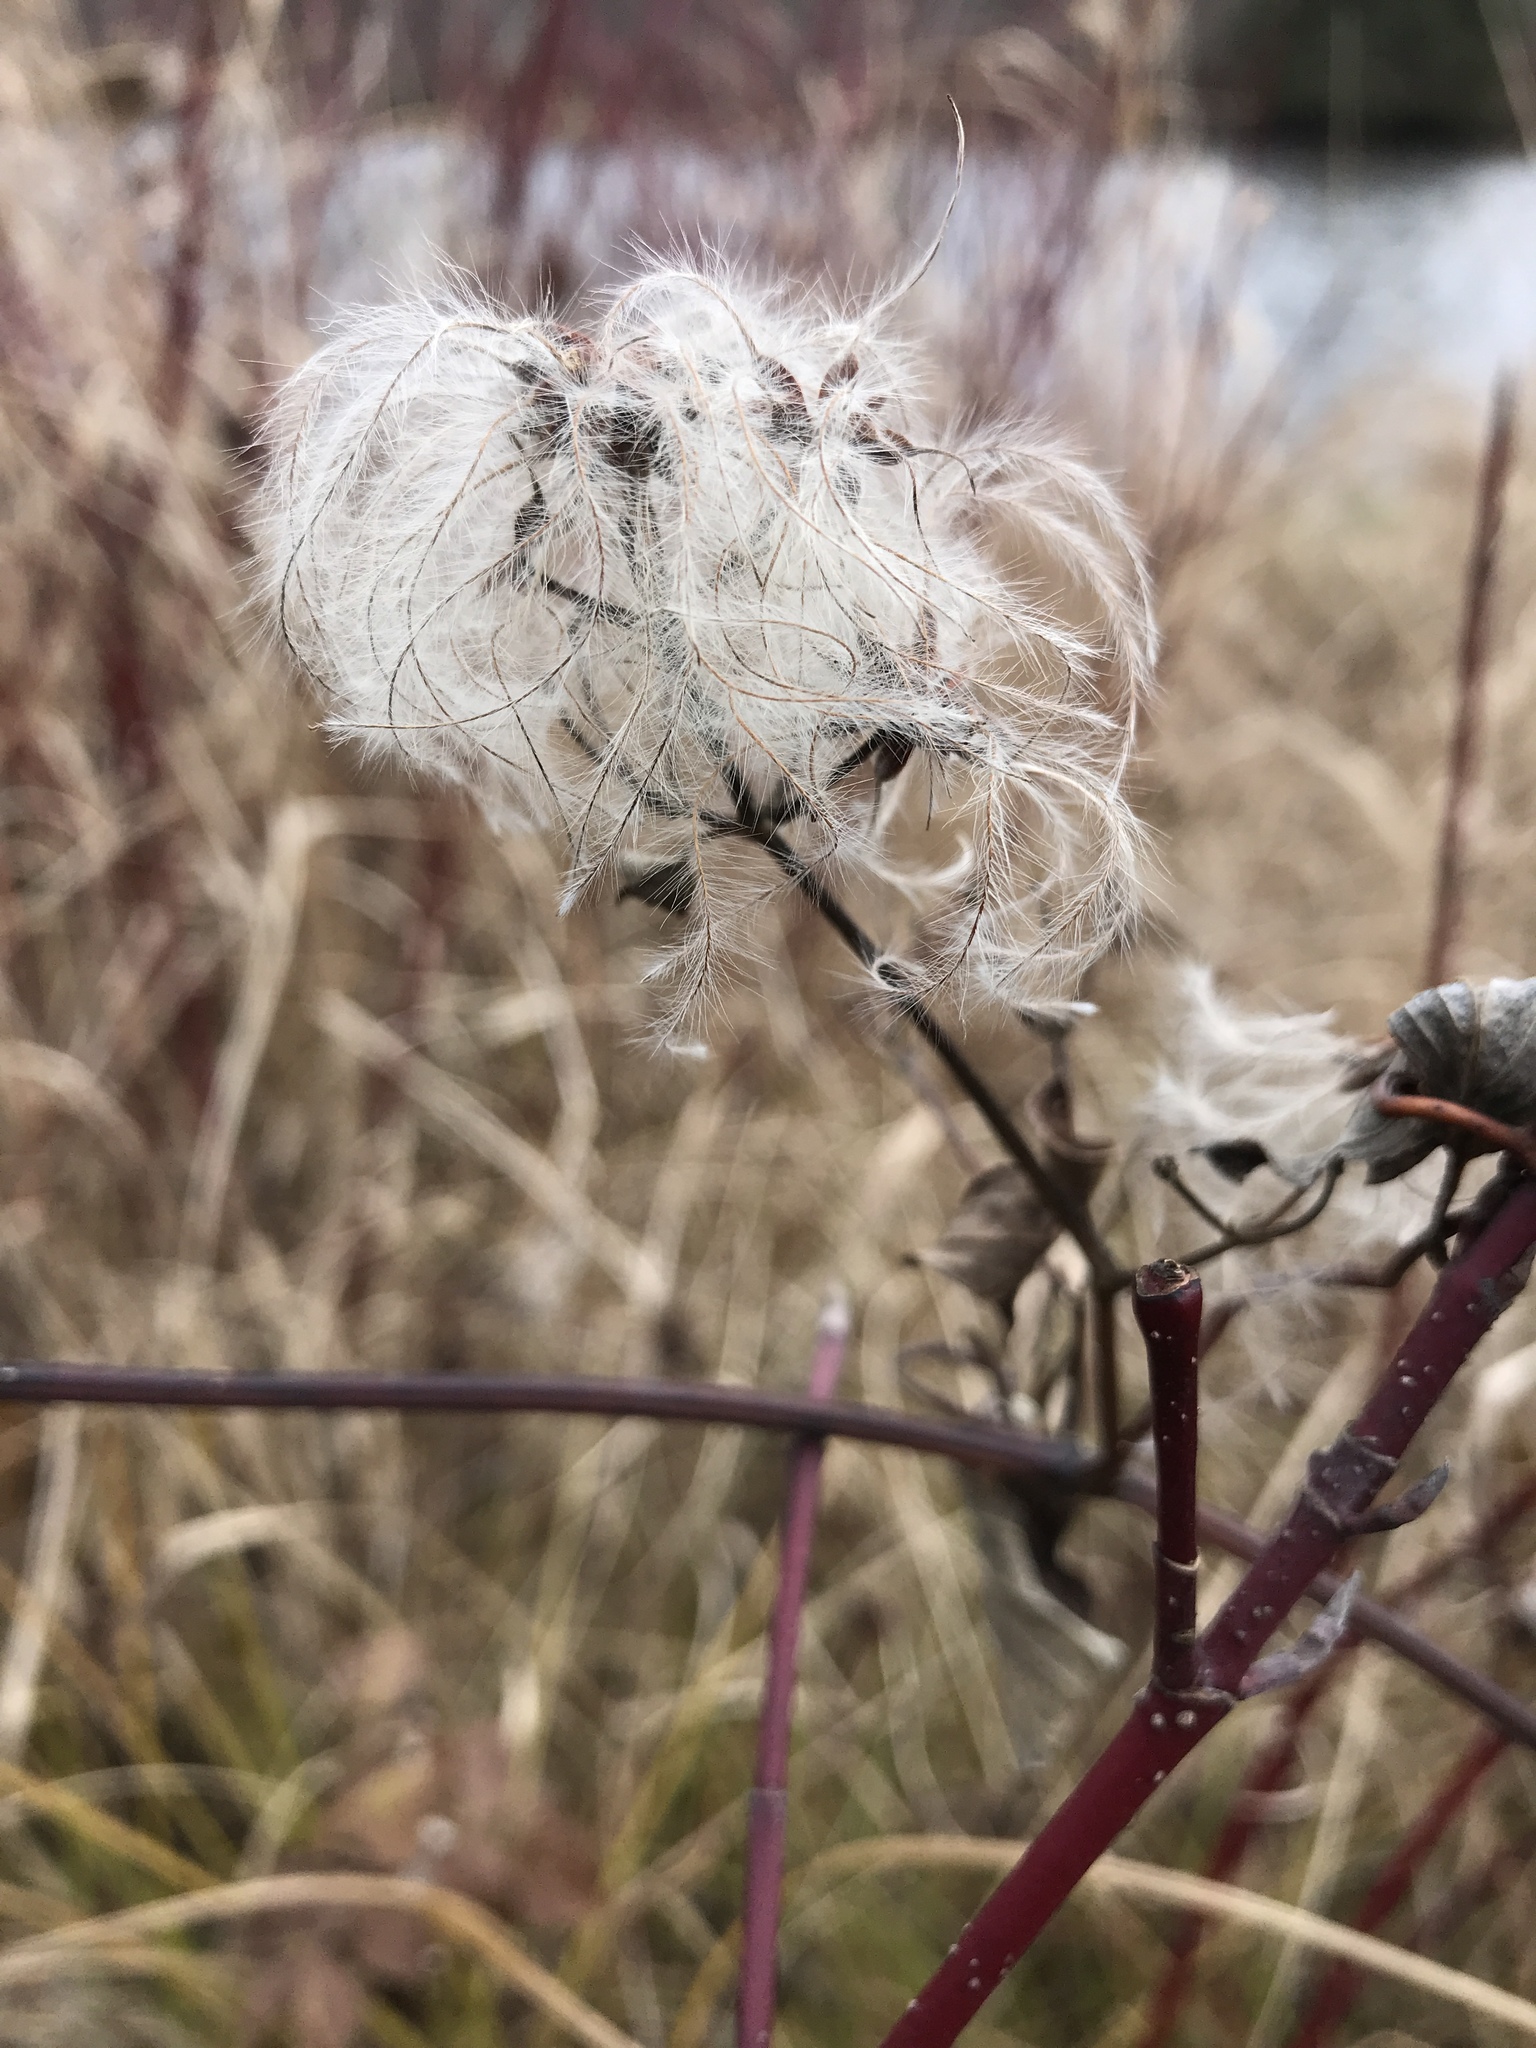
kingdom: Plantae
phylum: Tracheophyta
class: Magnoliopsida
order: Ranunculales
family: Ranunculaceae
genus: Clematis
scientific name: Clematis occidentalis
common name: Purple clematis
